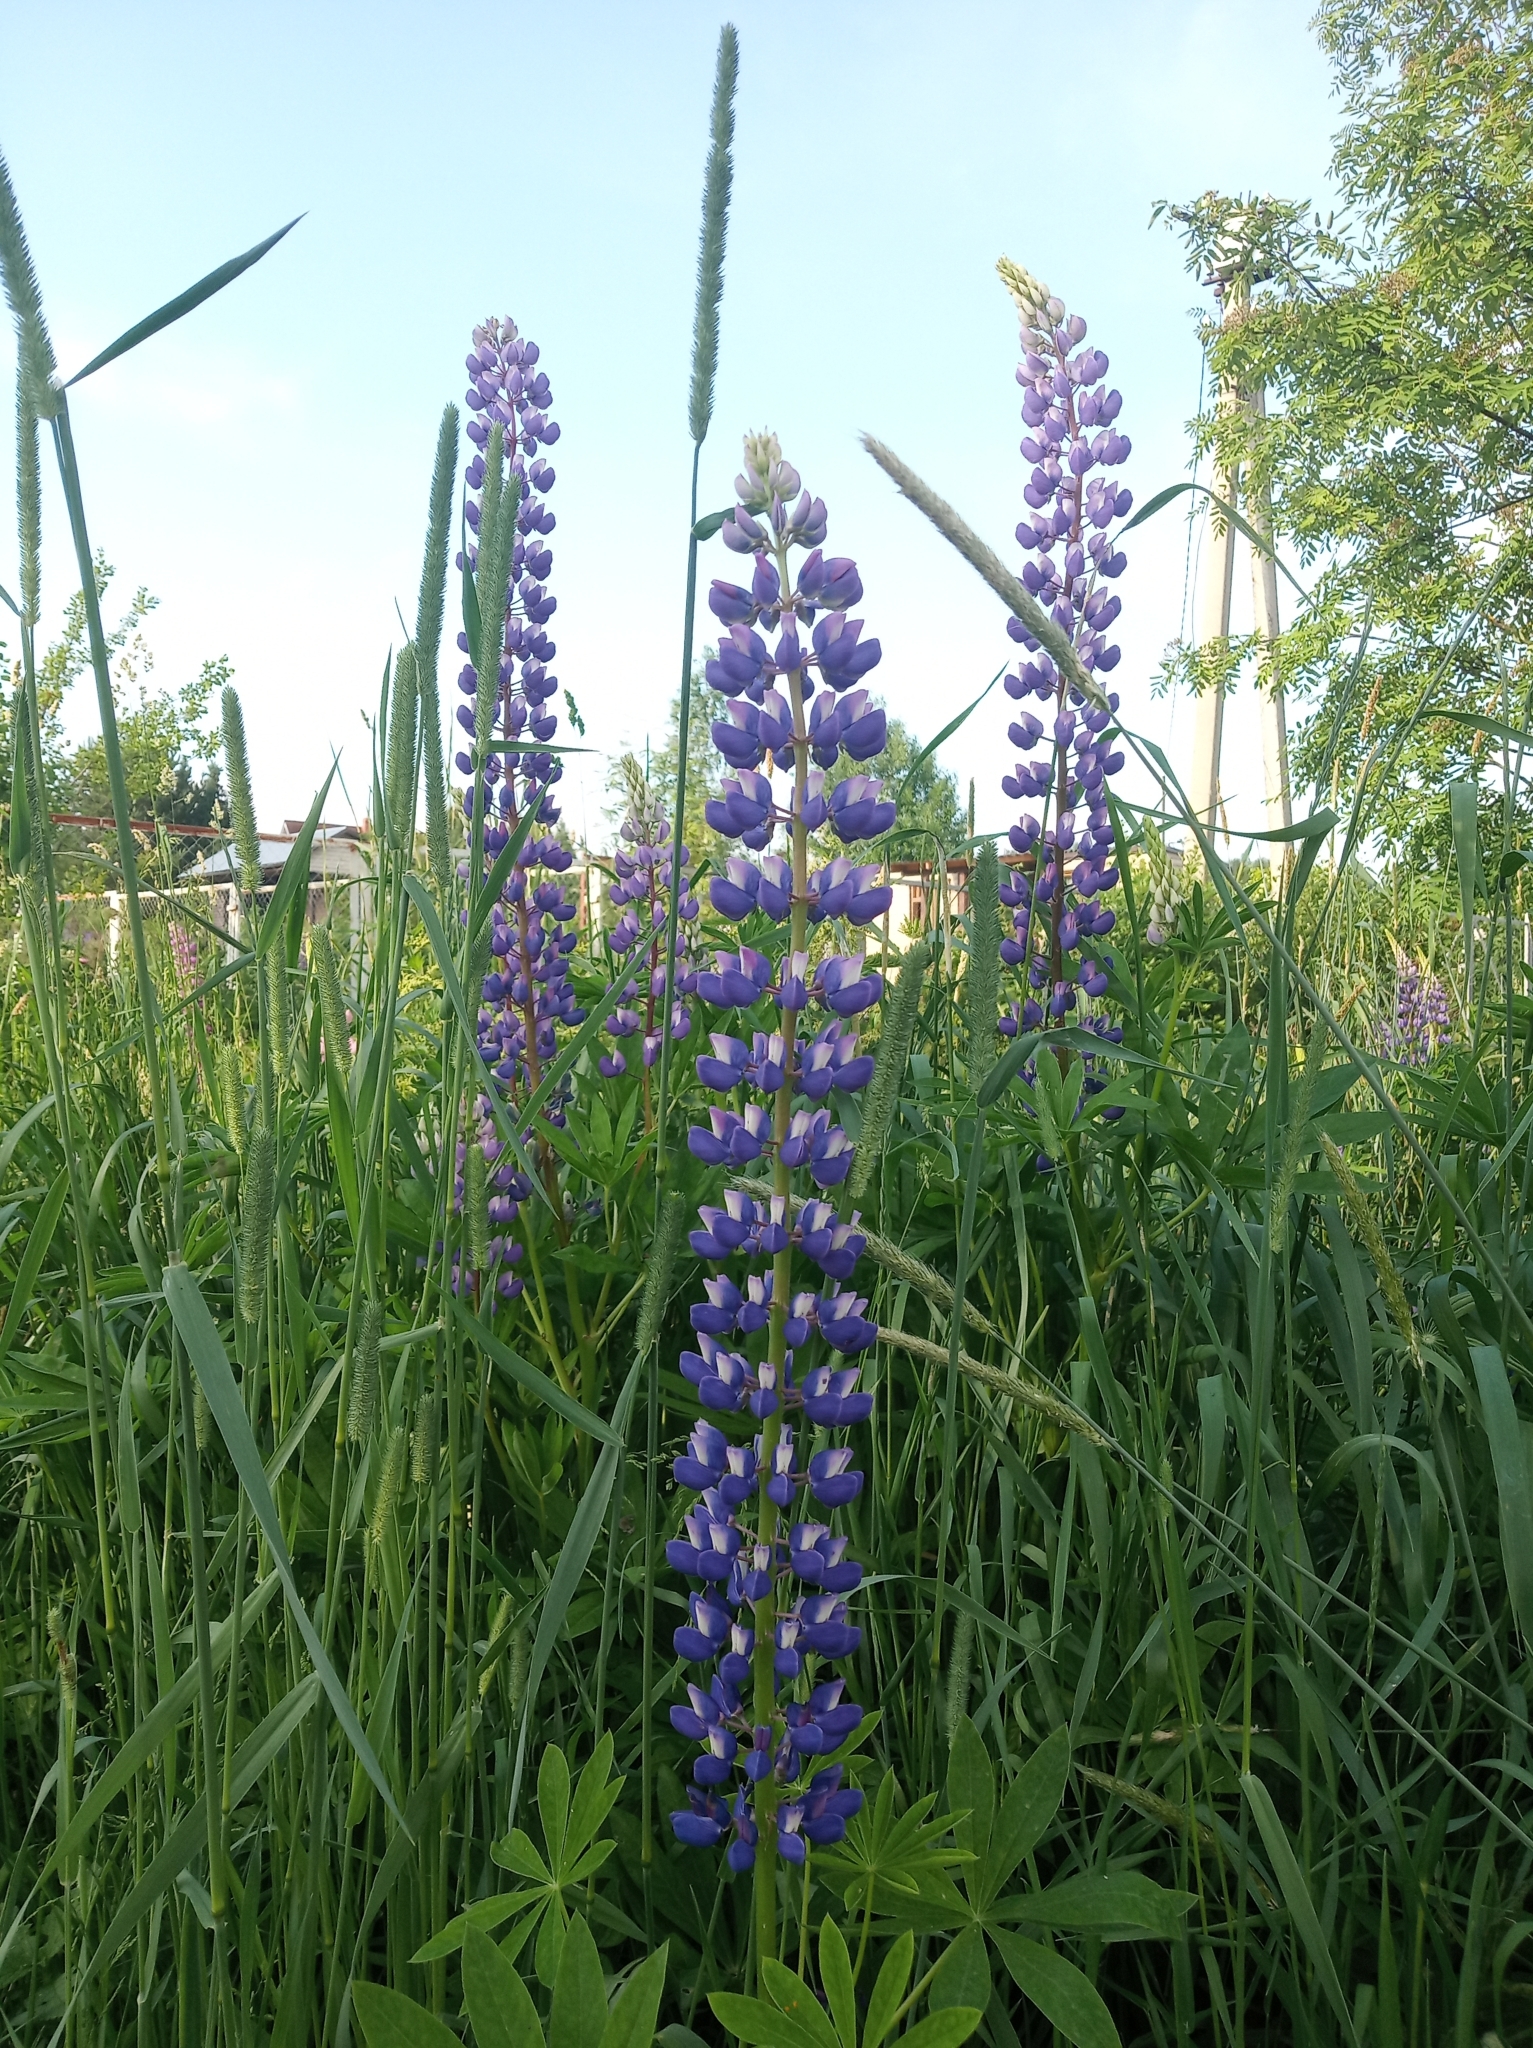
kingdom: Plantae
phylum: Tracheophyta
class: Magnoliopsida
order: Fabales
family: Fabaceae
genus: Lupinus
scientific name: Lupinus polyphyllus
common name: Garden lupin
